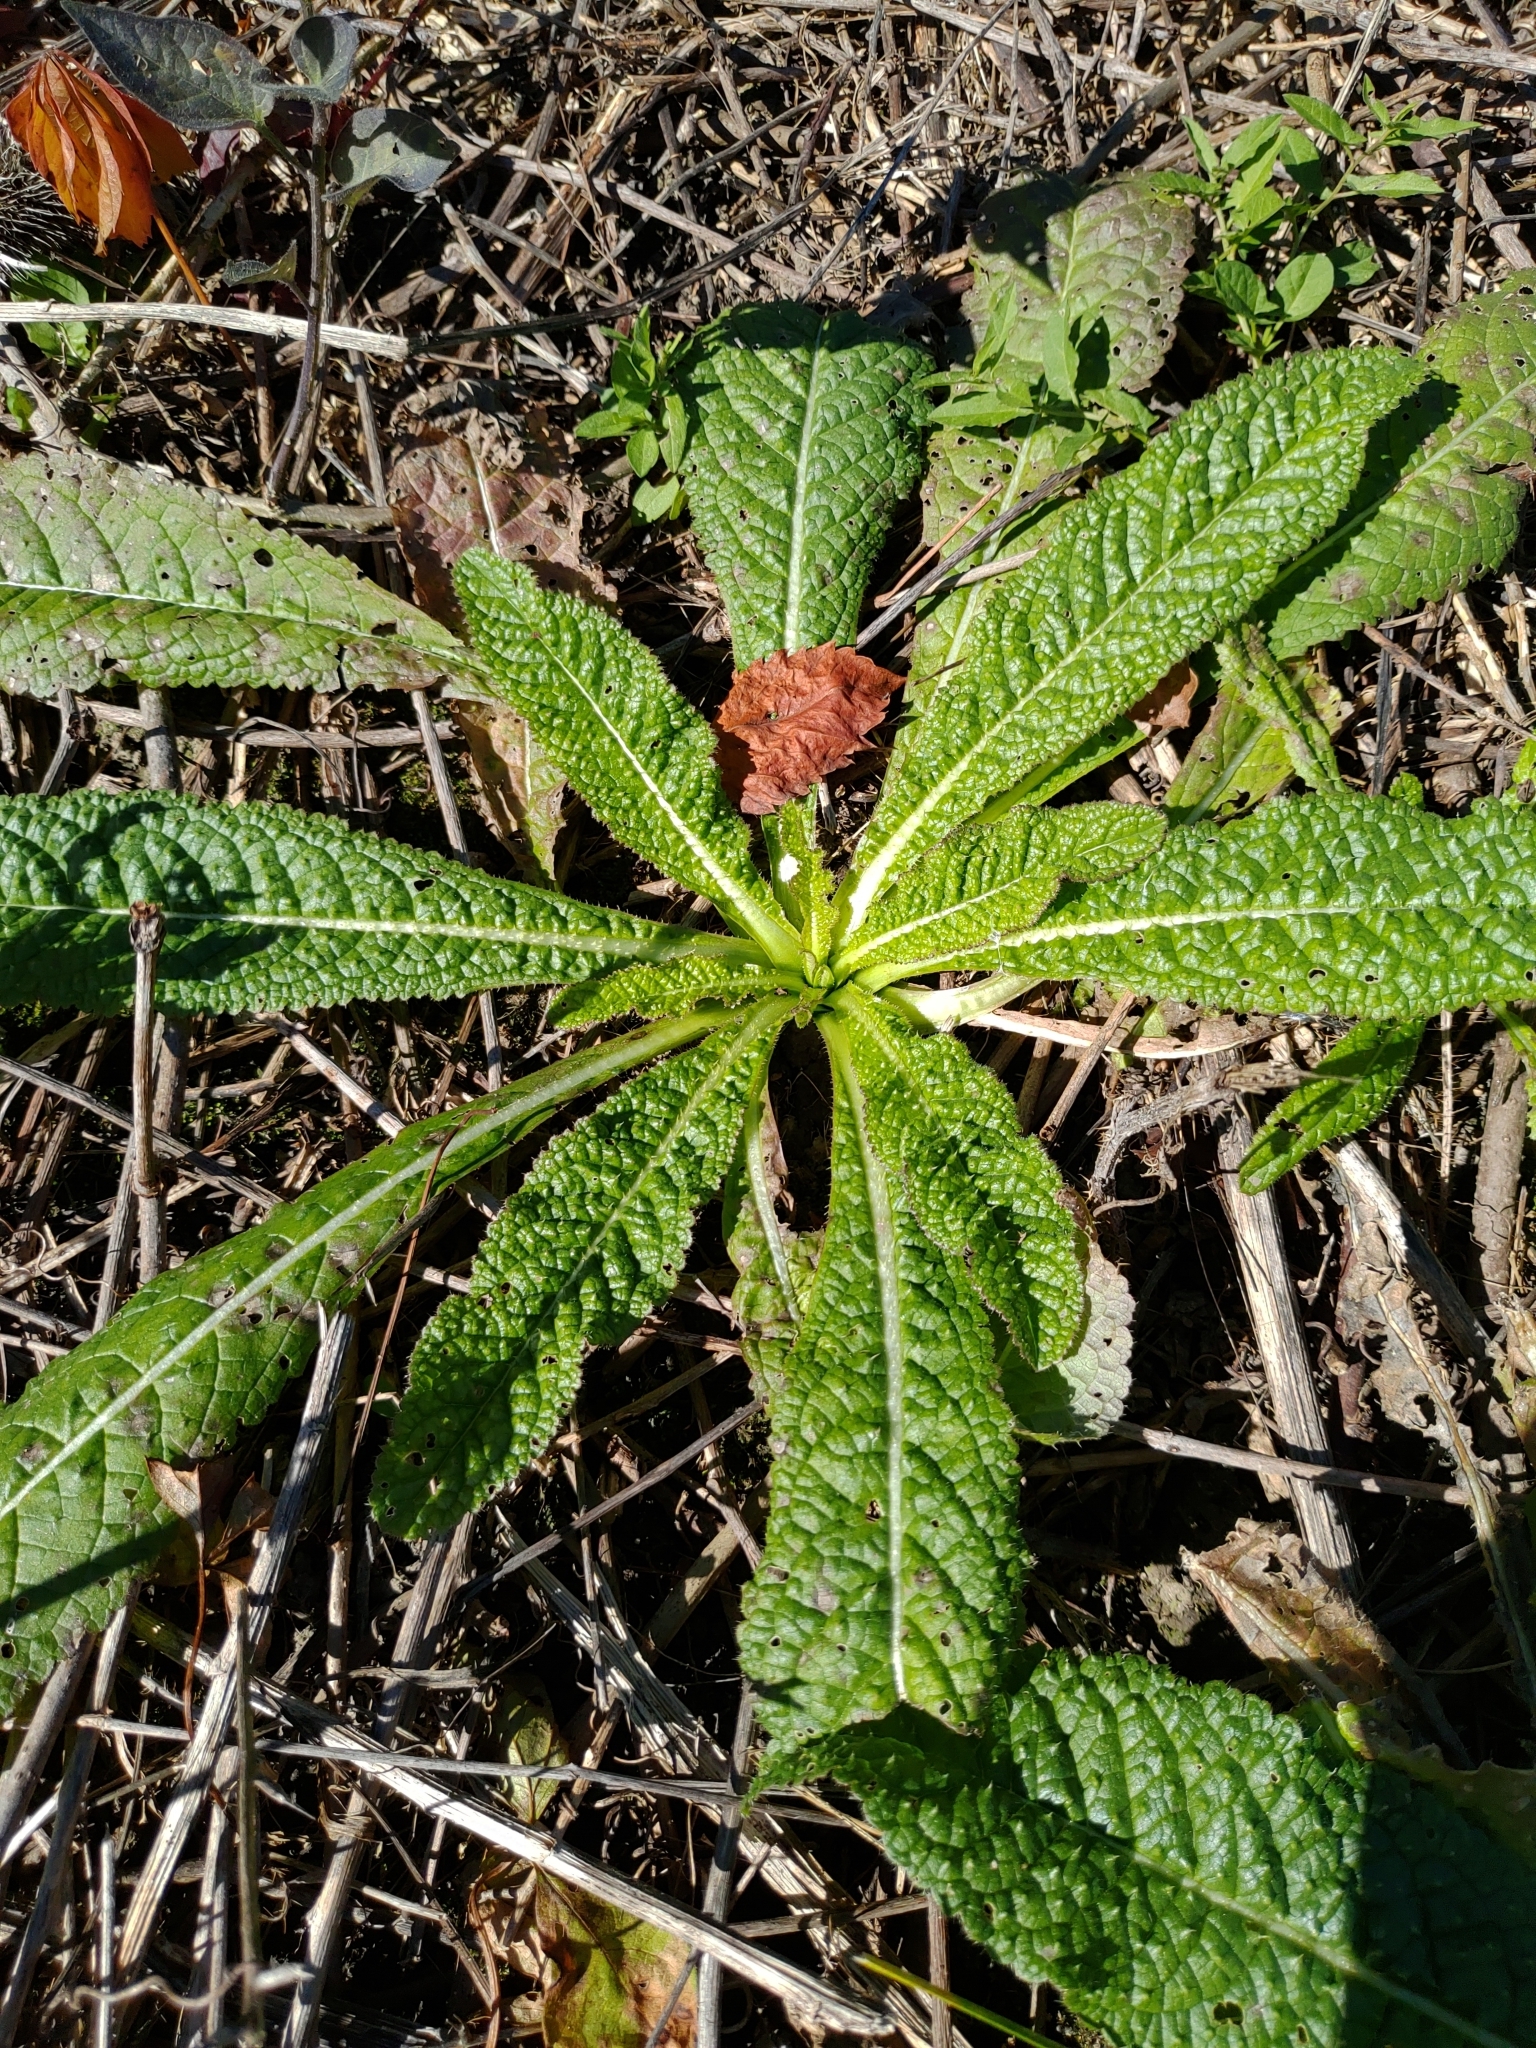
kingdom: Plantae
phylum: Tracheophyta
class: Magnoliopsida
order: Dipsacales
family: Caprifoliaceae
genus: Dipsacus
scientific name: Dipsacus fullonum
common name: Teasel
